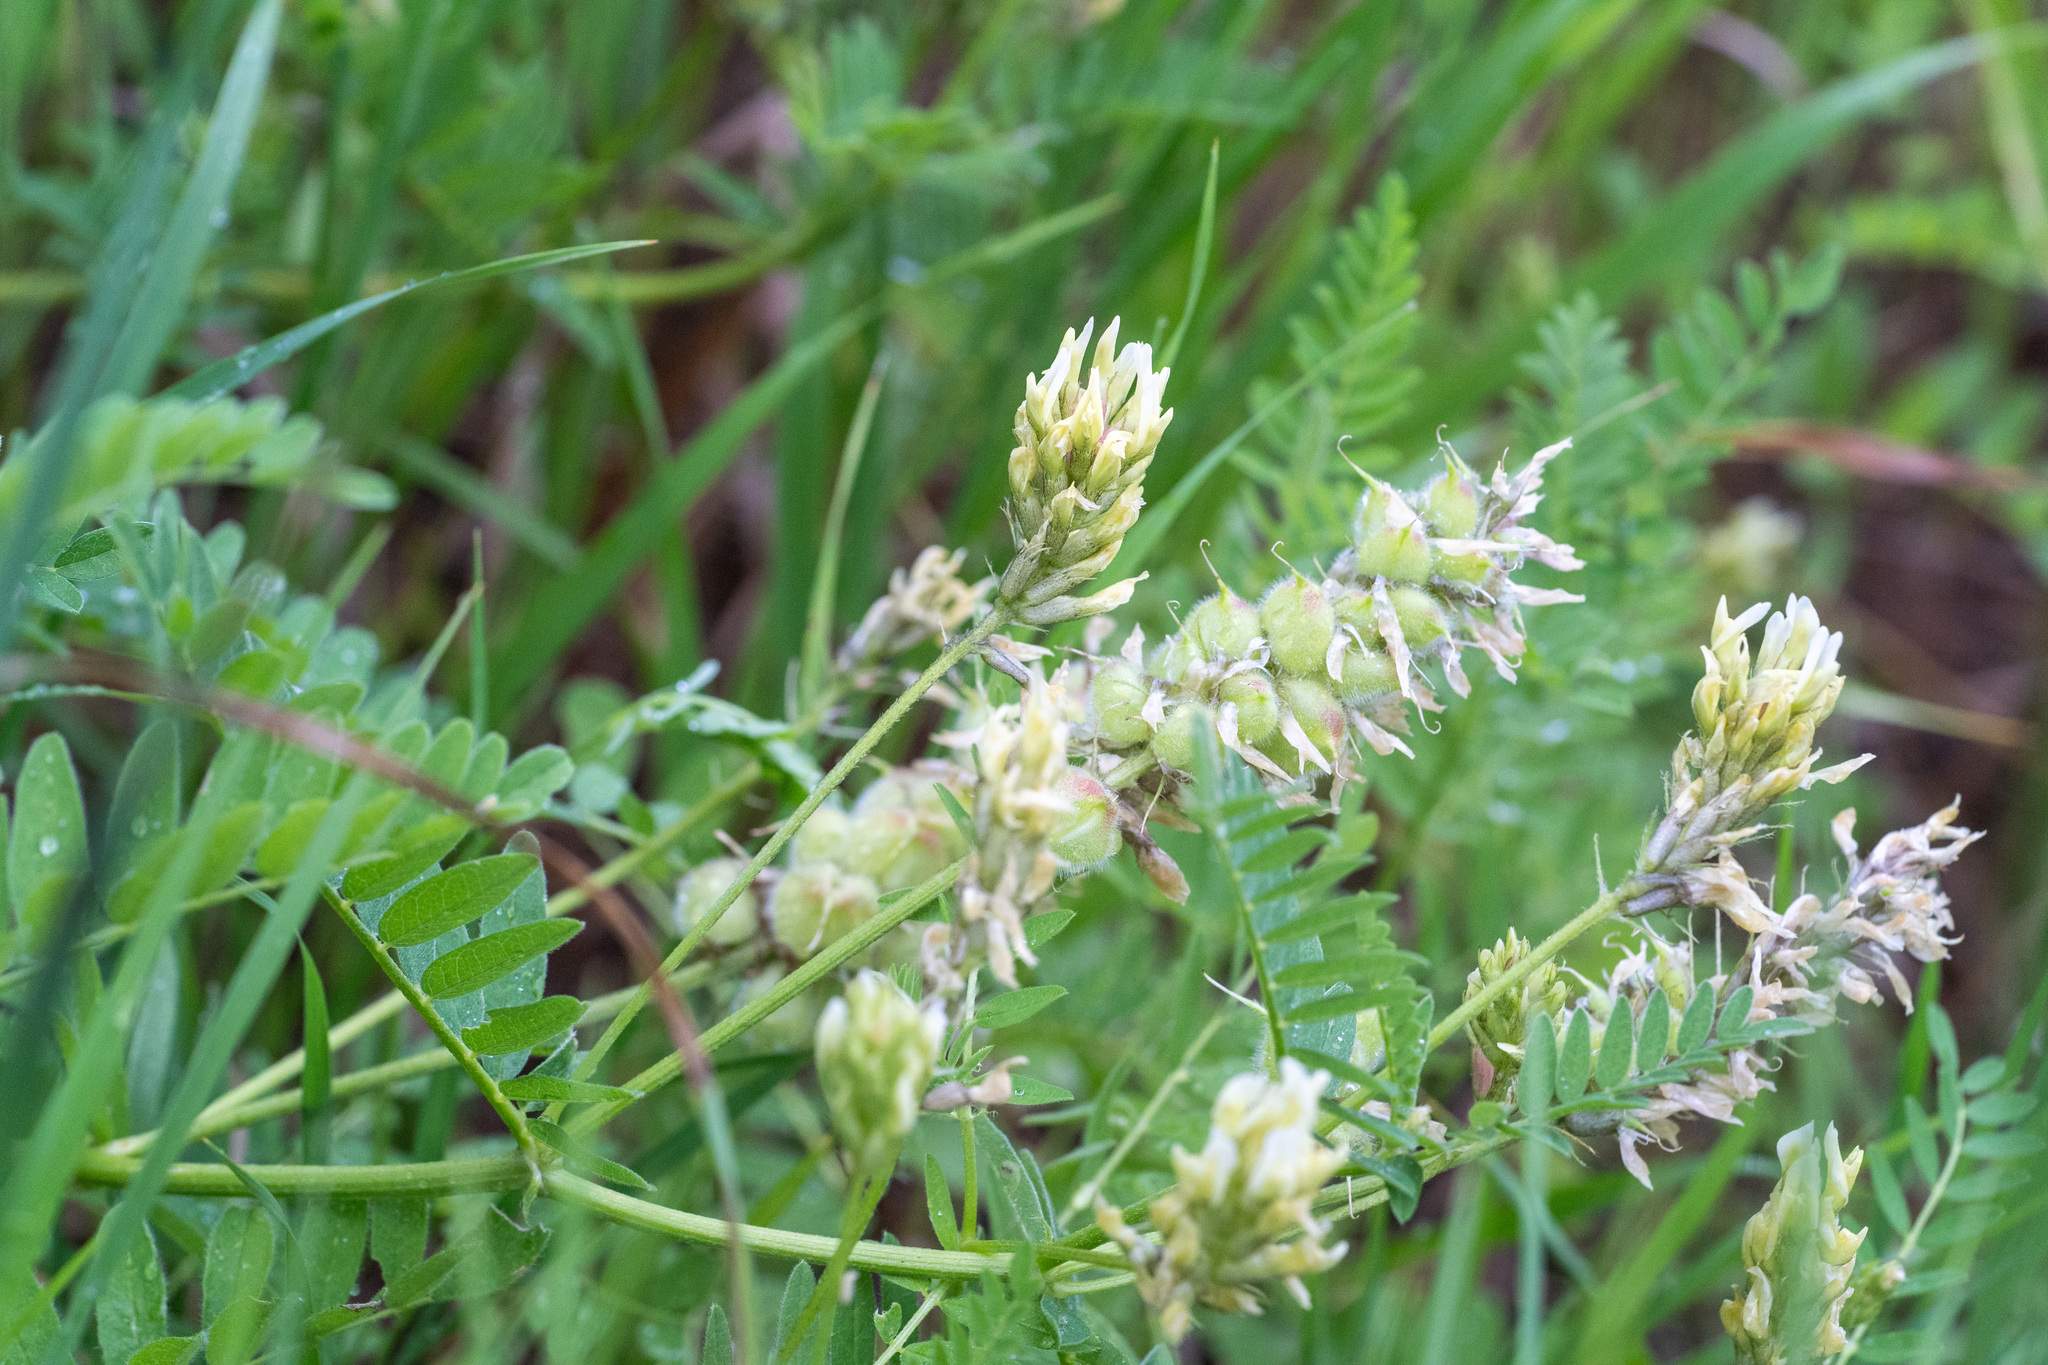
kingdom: Plantae
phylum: Tracheophyta
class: Magnoliopsida
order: Fabales
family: Fabaceae
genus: Astragalus
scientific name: Astragalus cicer
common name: Chick-pea milk-vetch
